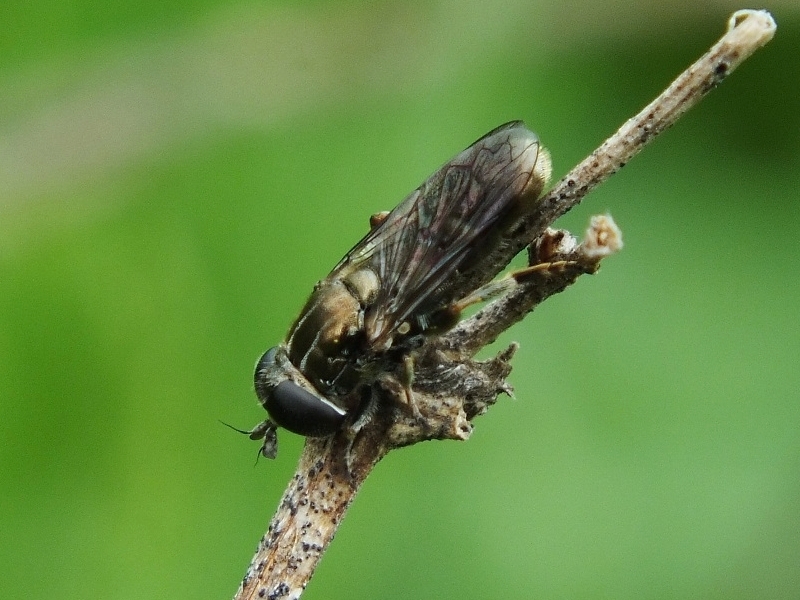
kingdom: Animalia
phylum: Arthropoda
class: Insecta
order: Diptera
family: Syrphidae
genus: Eumerus
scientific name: Eumerus
